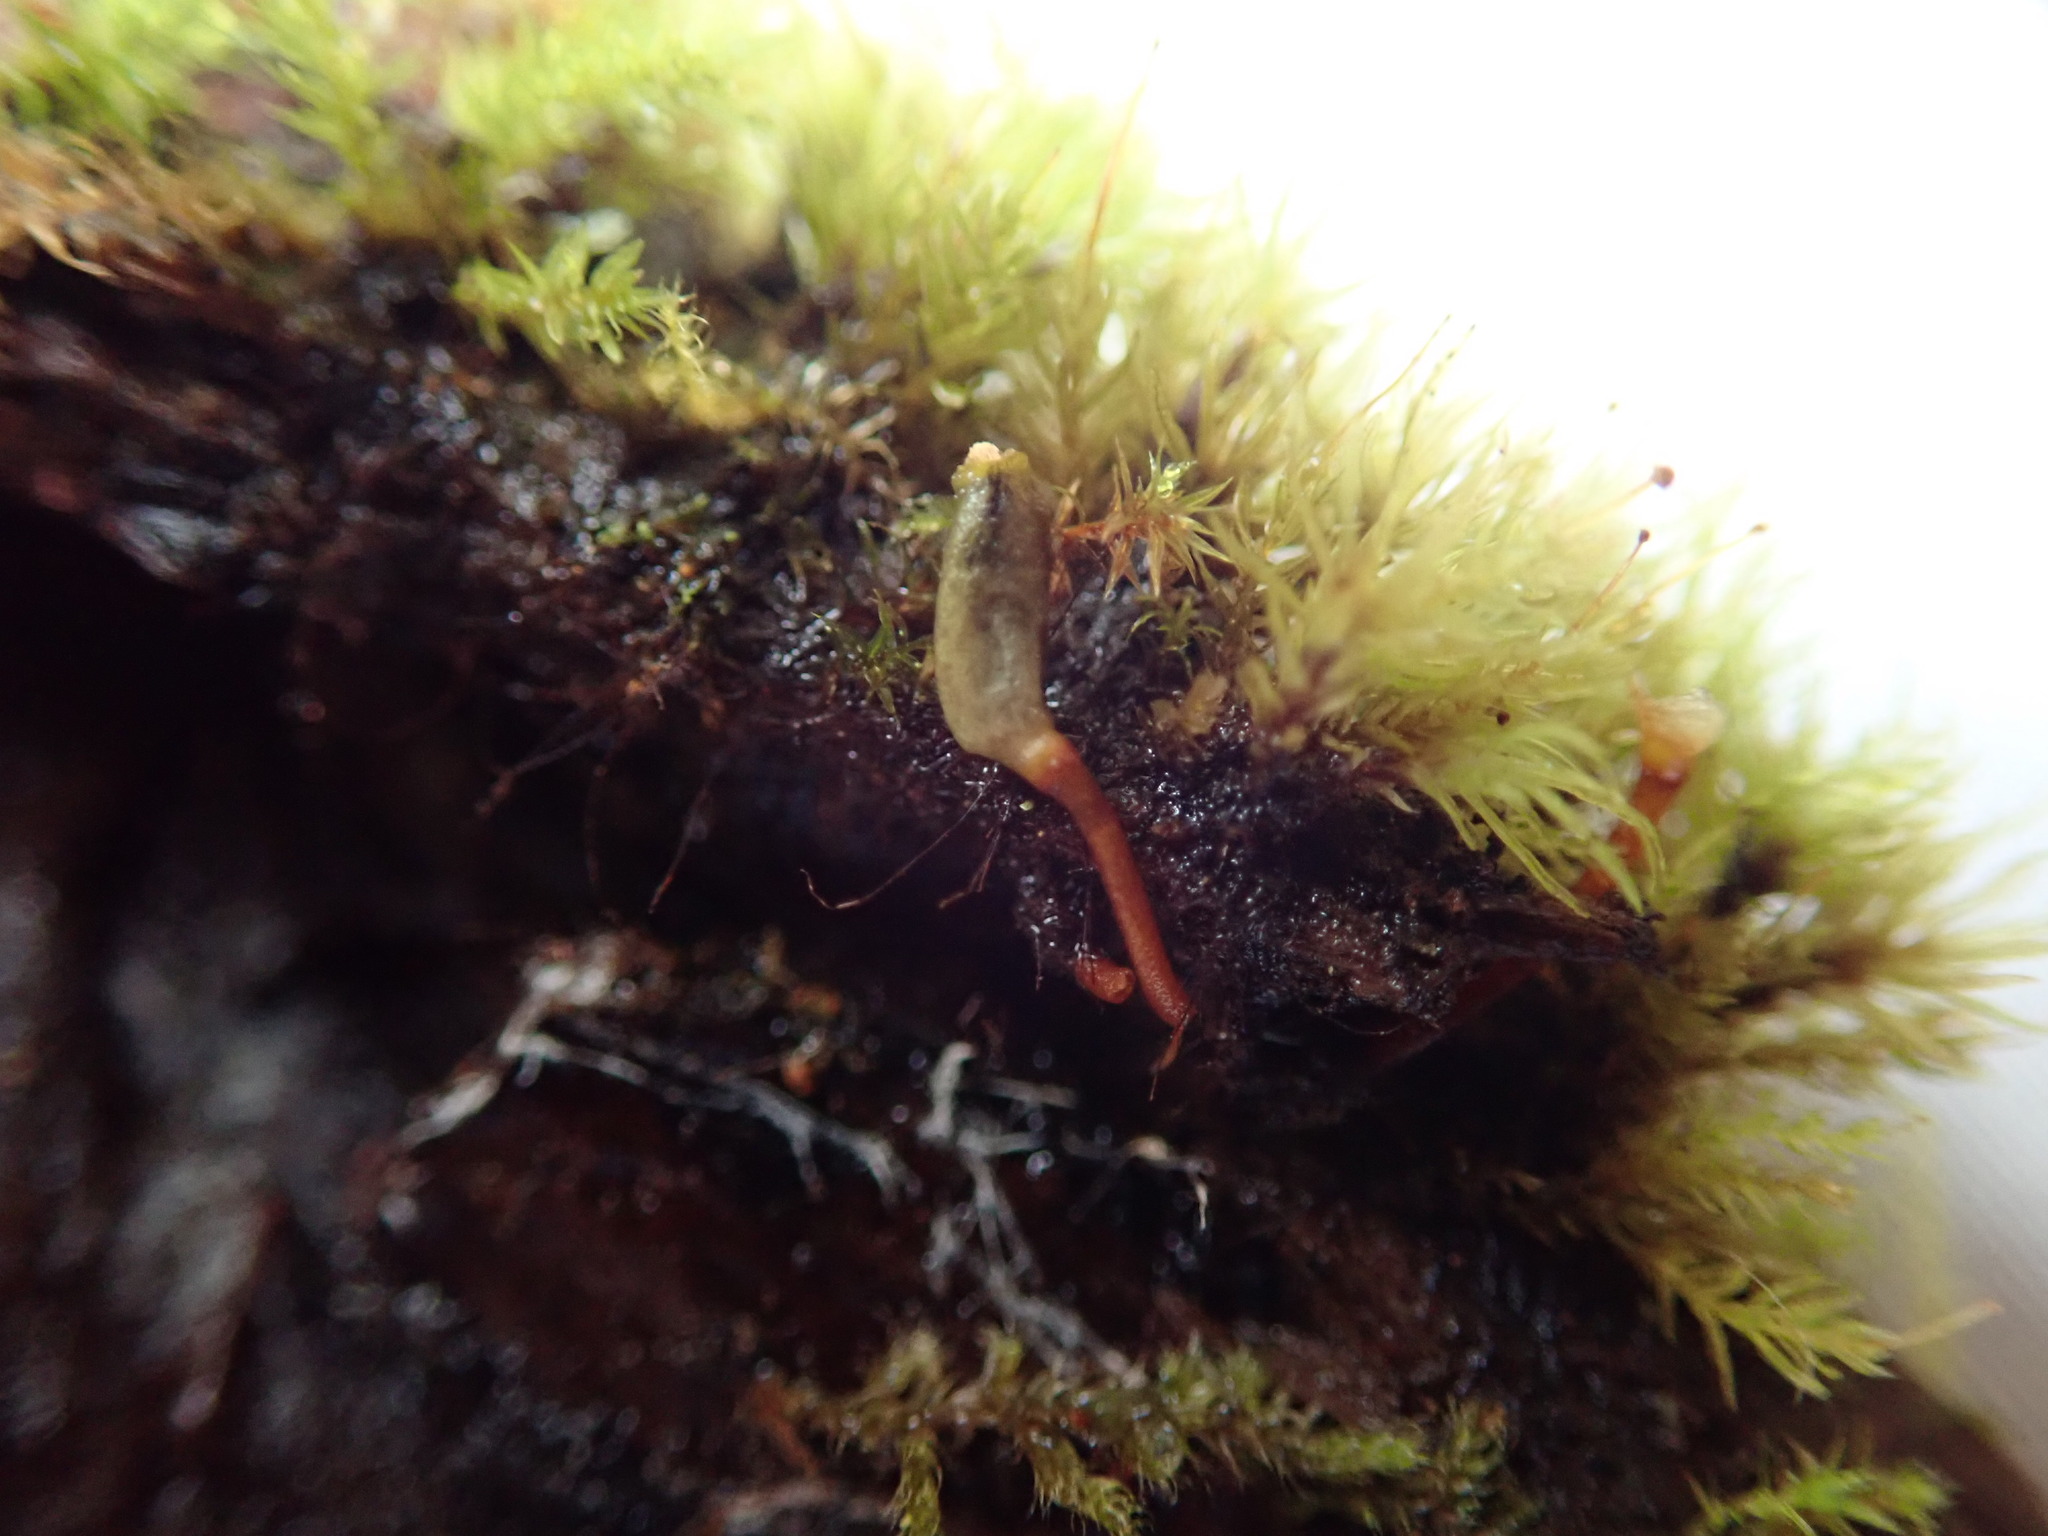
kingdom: Plantae
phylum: Bryophyta
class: Bryopsida
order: Buxbaumiales
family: Buxbaumiaceae
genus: Buxbaumia
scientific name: Buxbaumia piperi
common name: Piper's shield moss
